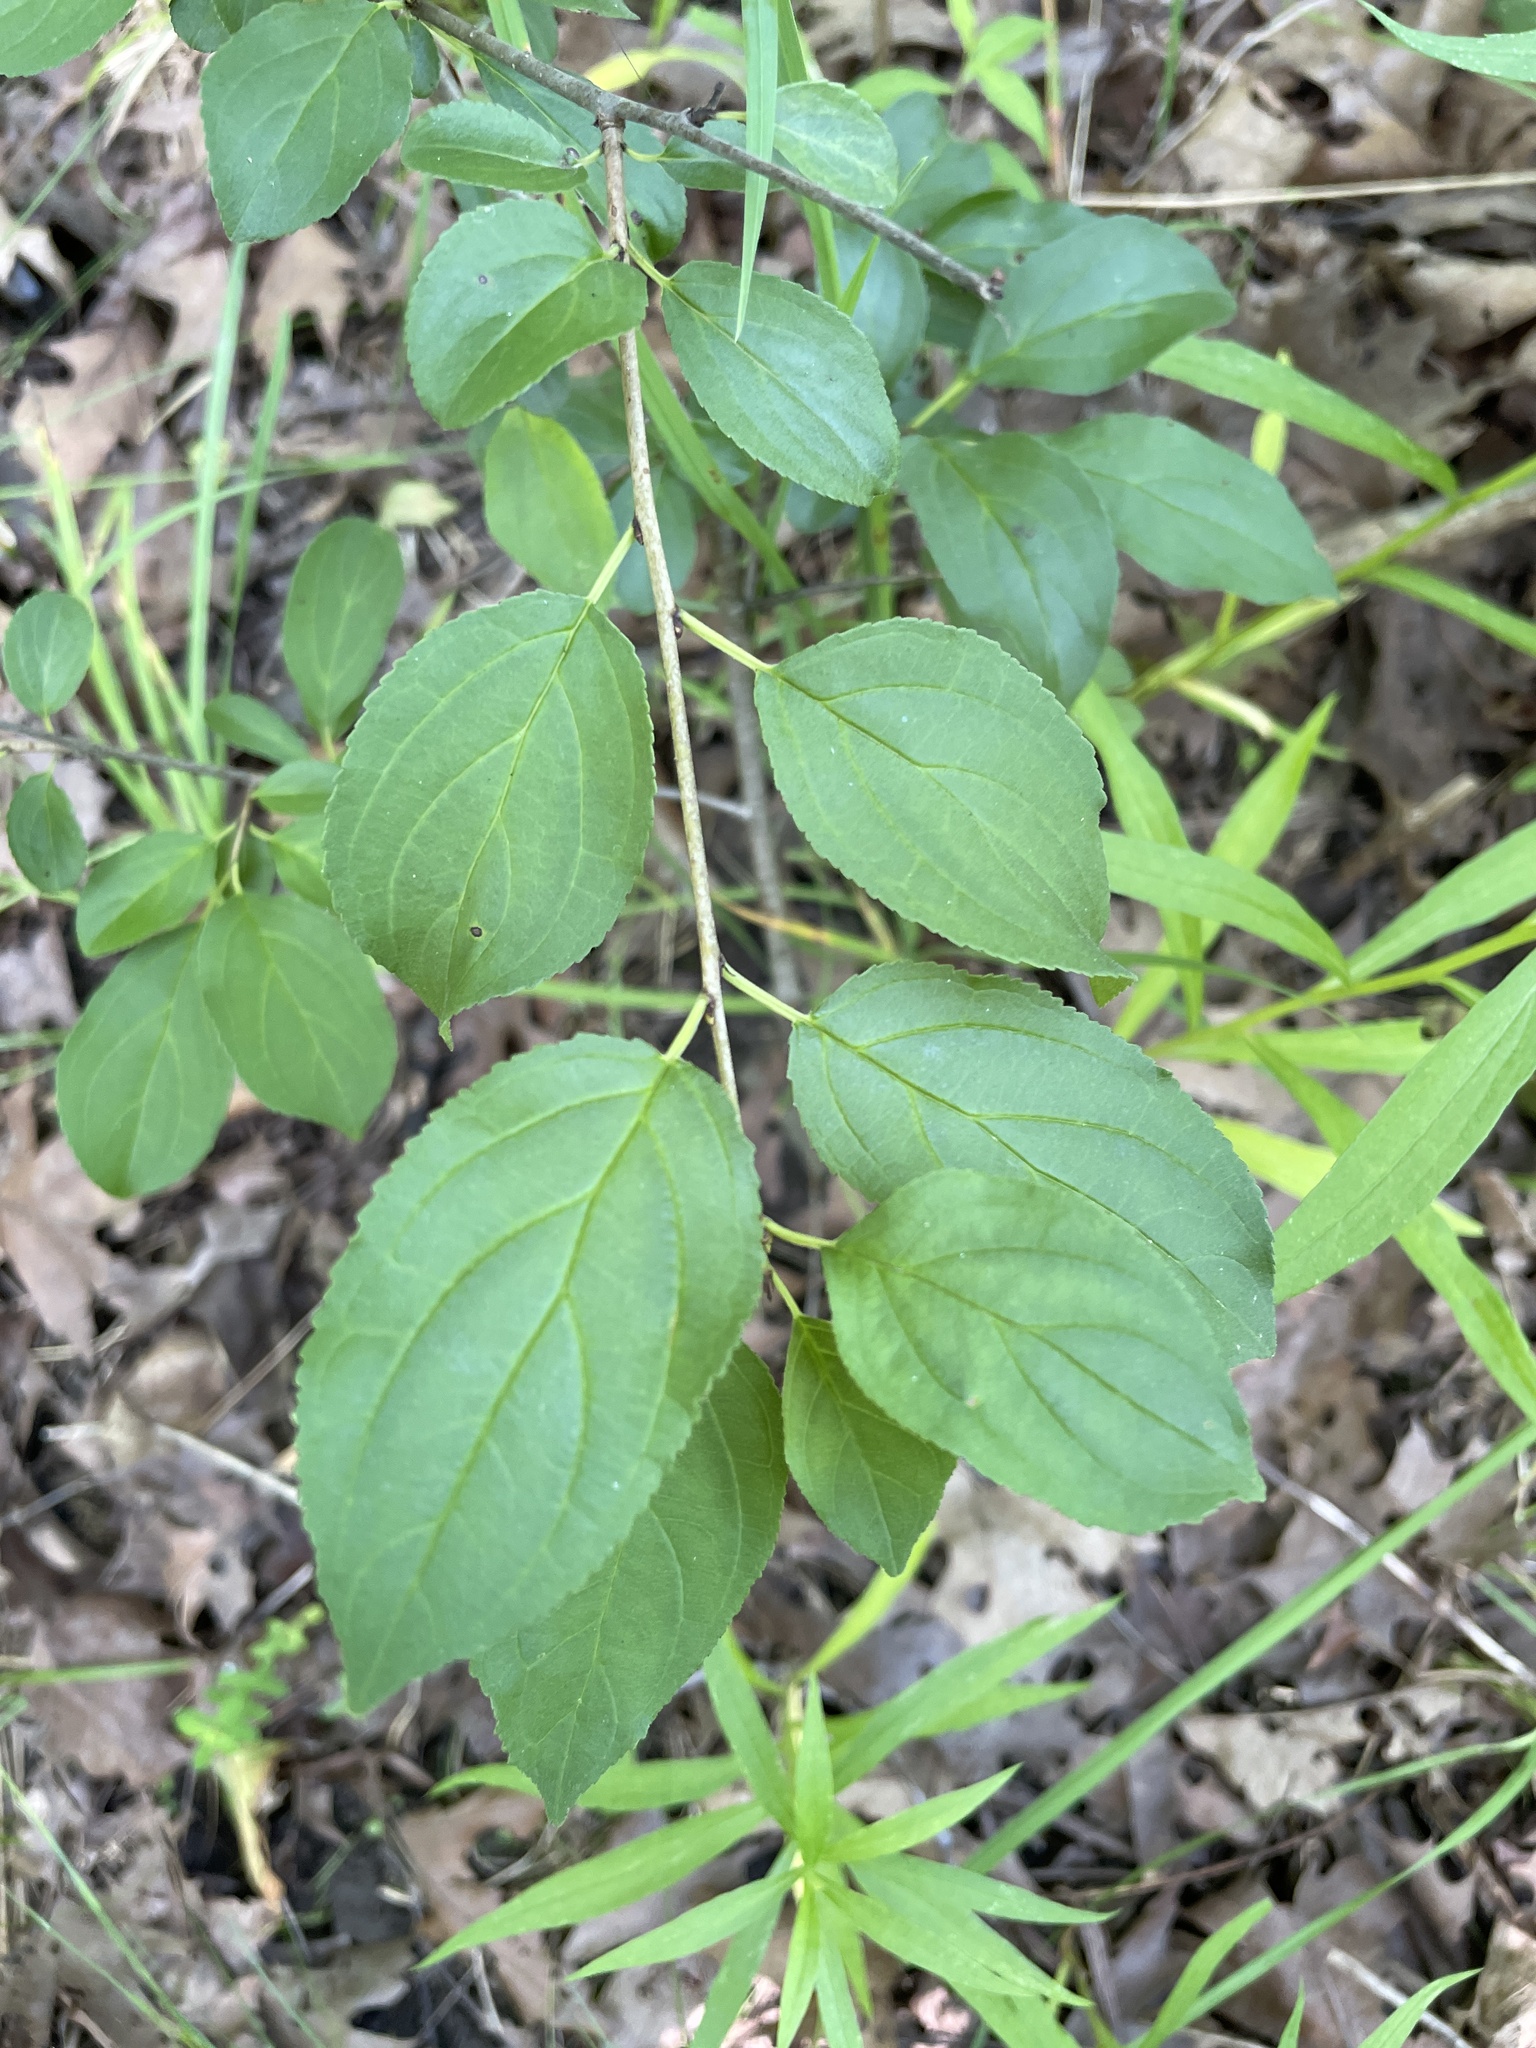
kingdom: Plantae
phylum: Tracheophyta
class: Magnoliopsida
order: Rosales
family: Rhamnaceae
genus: Rhamnus
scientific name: Rhamnus cathartica
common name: Common buckthorn
